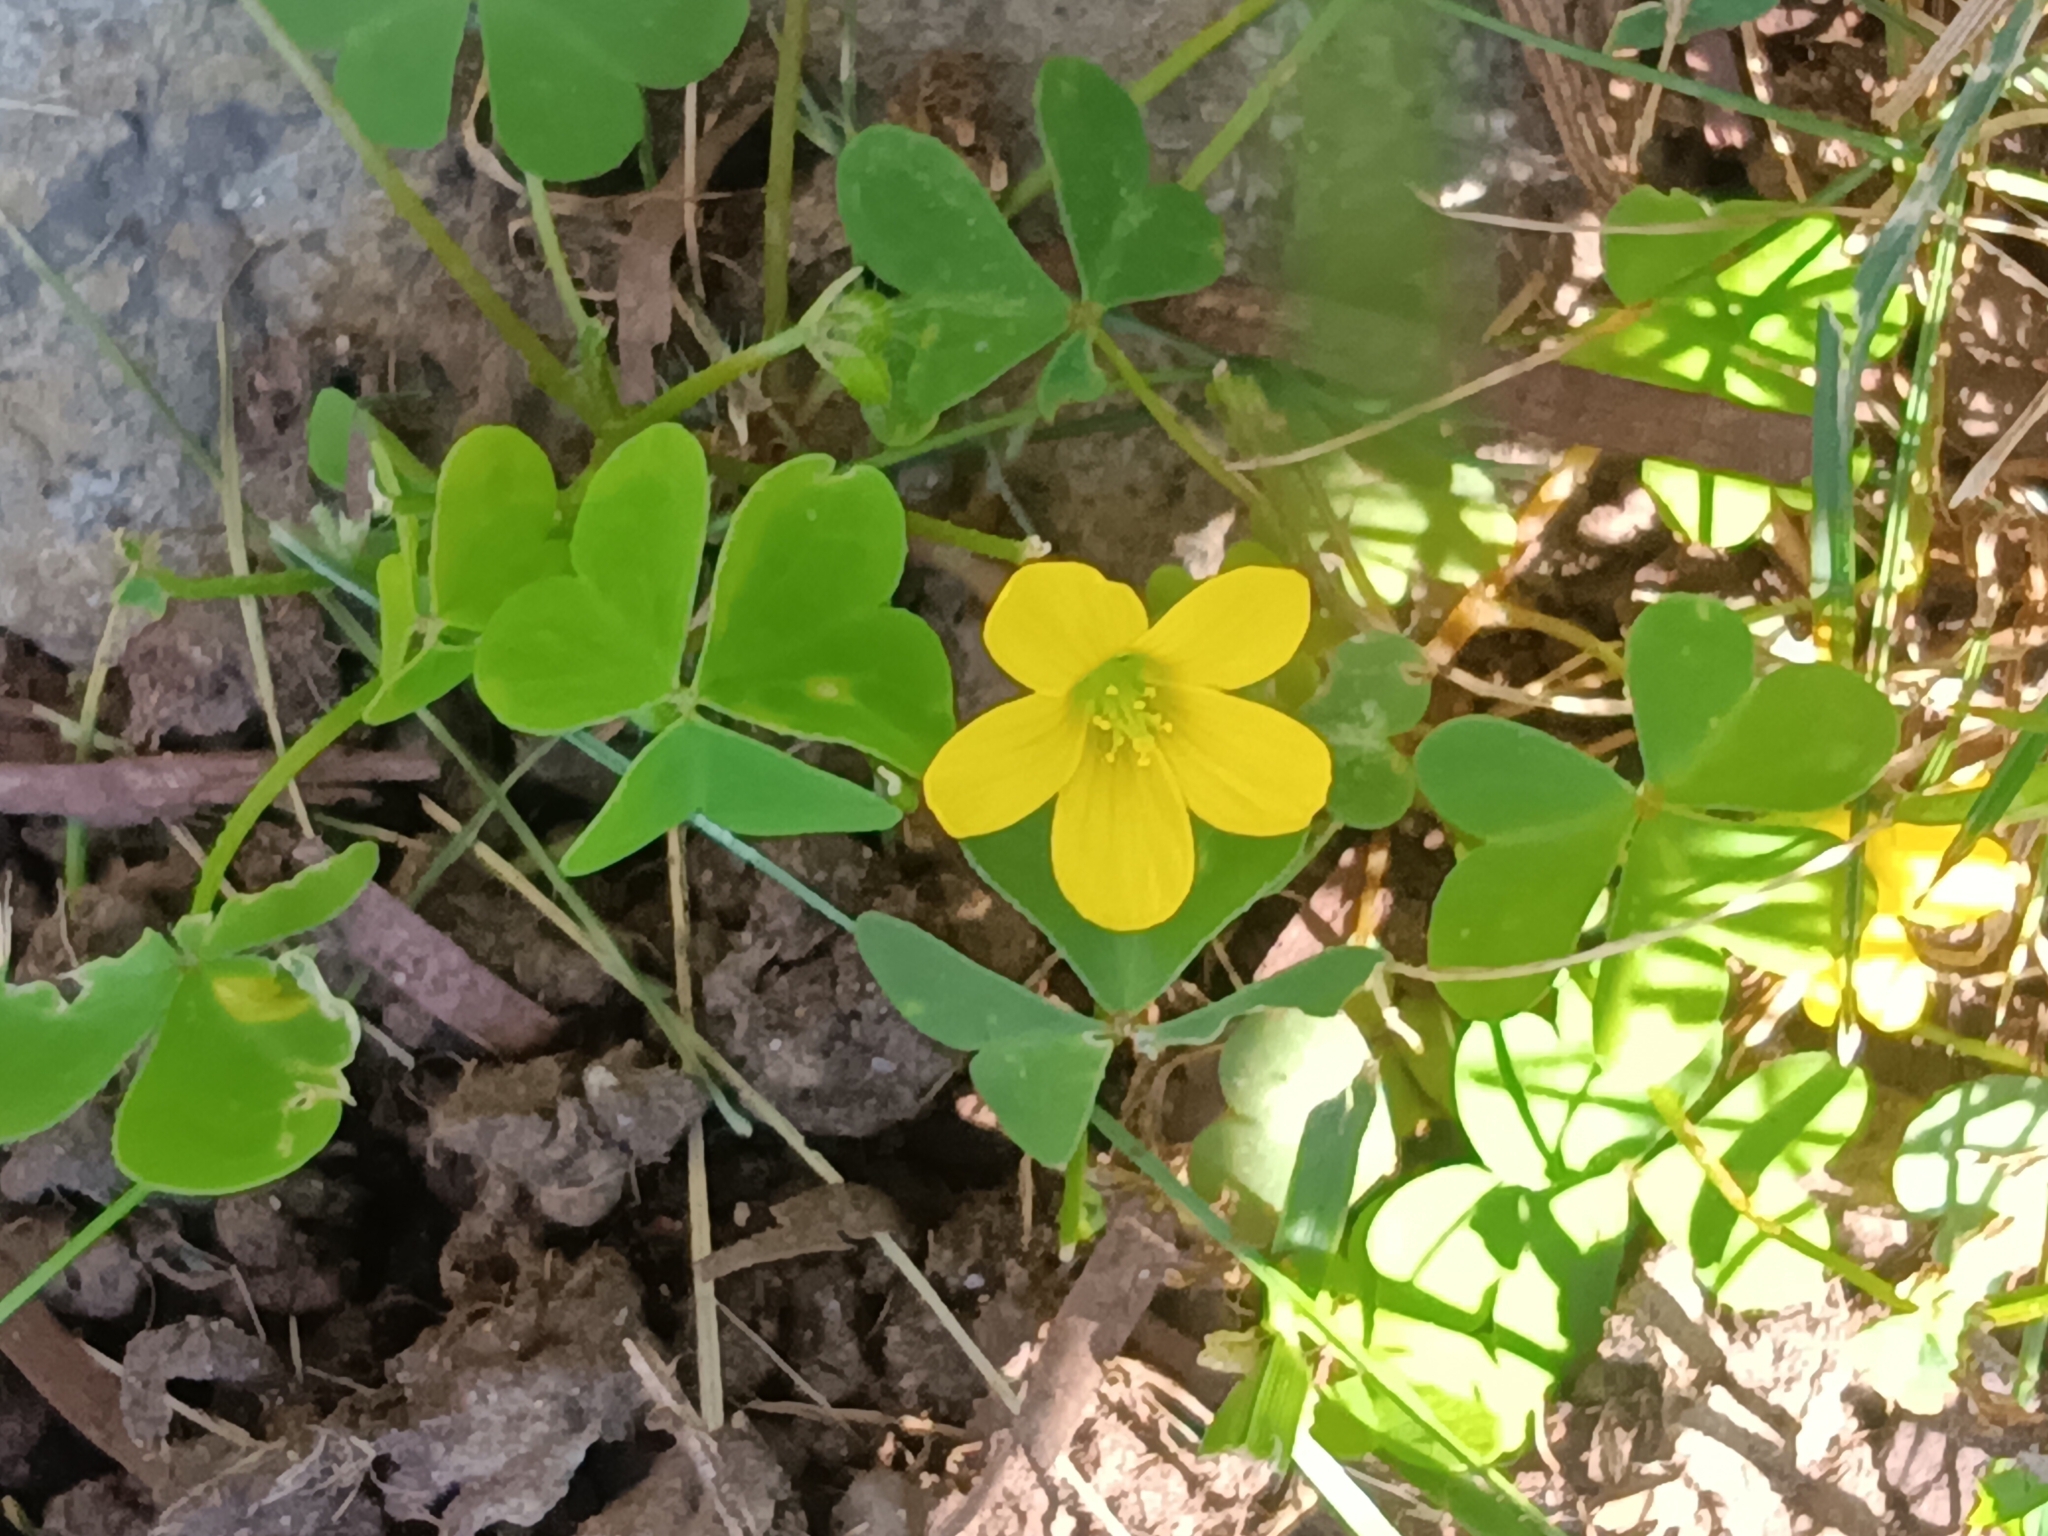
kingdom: Plantae
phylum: Tracheophyta
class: Magnoliopsida
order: Oxalidales
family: Oxalidaceae
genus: Oxalis
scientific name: Oxalis stricta
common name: Upright yellow-sorrel
